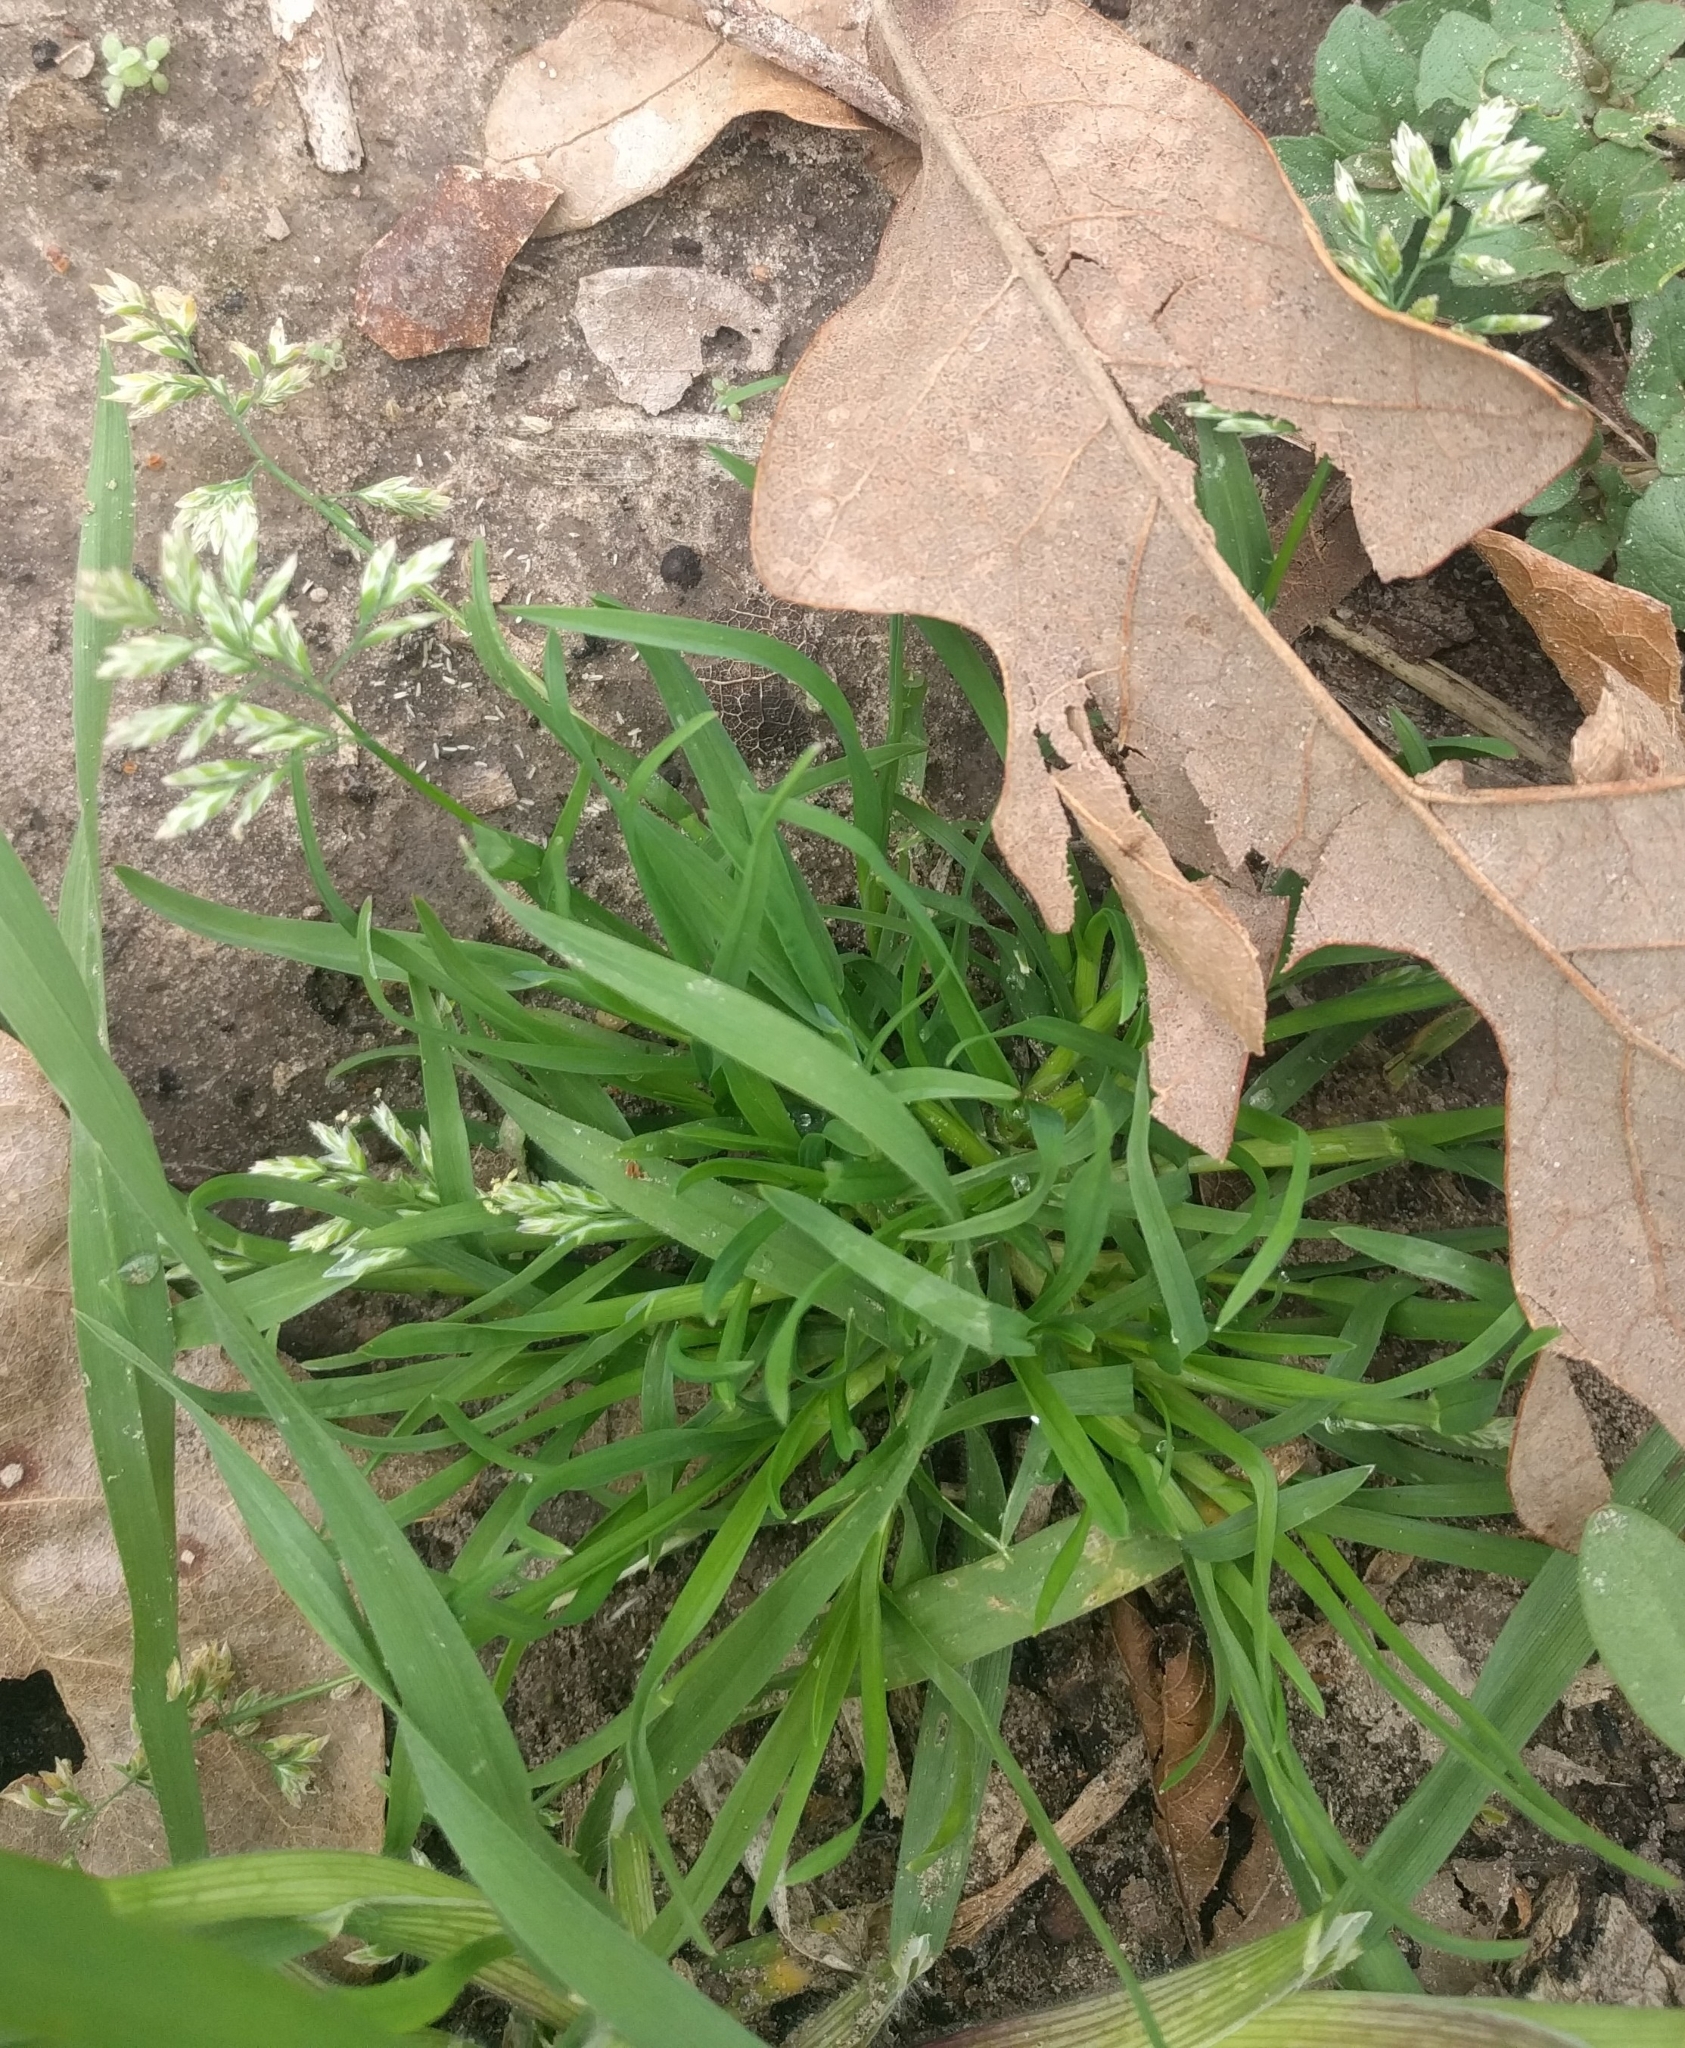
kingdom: Plantae
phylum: Tracheophyta
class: Liliopsida
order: Poales
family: Poaceae
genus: Poa
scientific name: Poa annua
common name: Annual bluegrass
